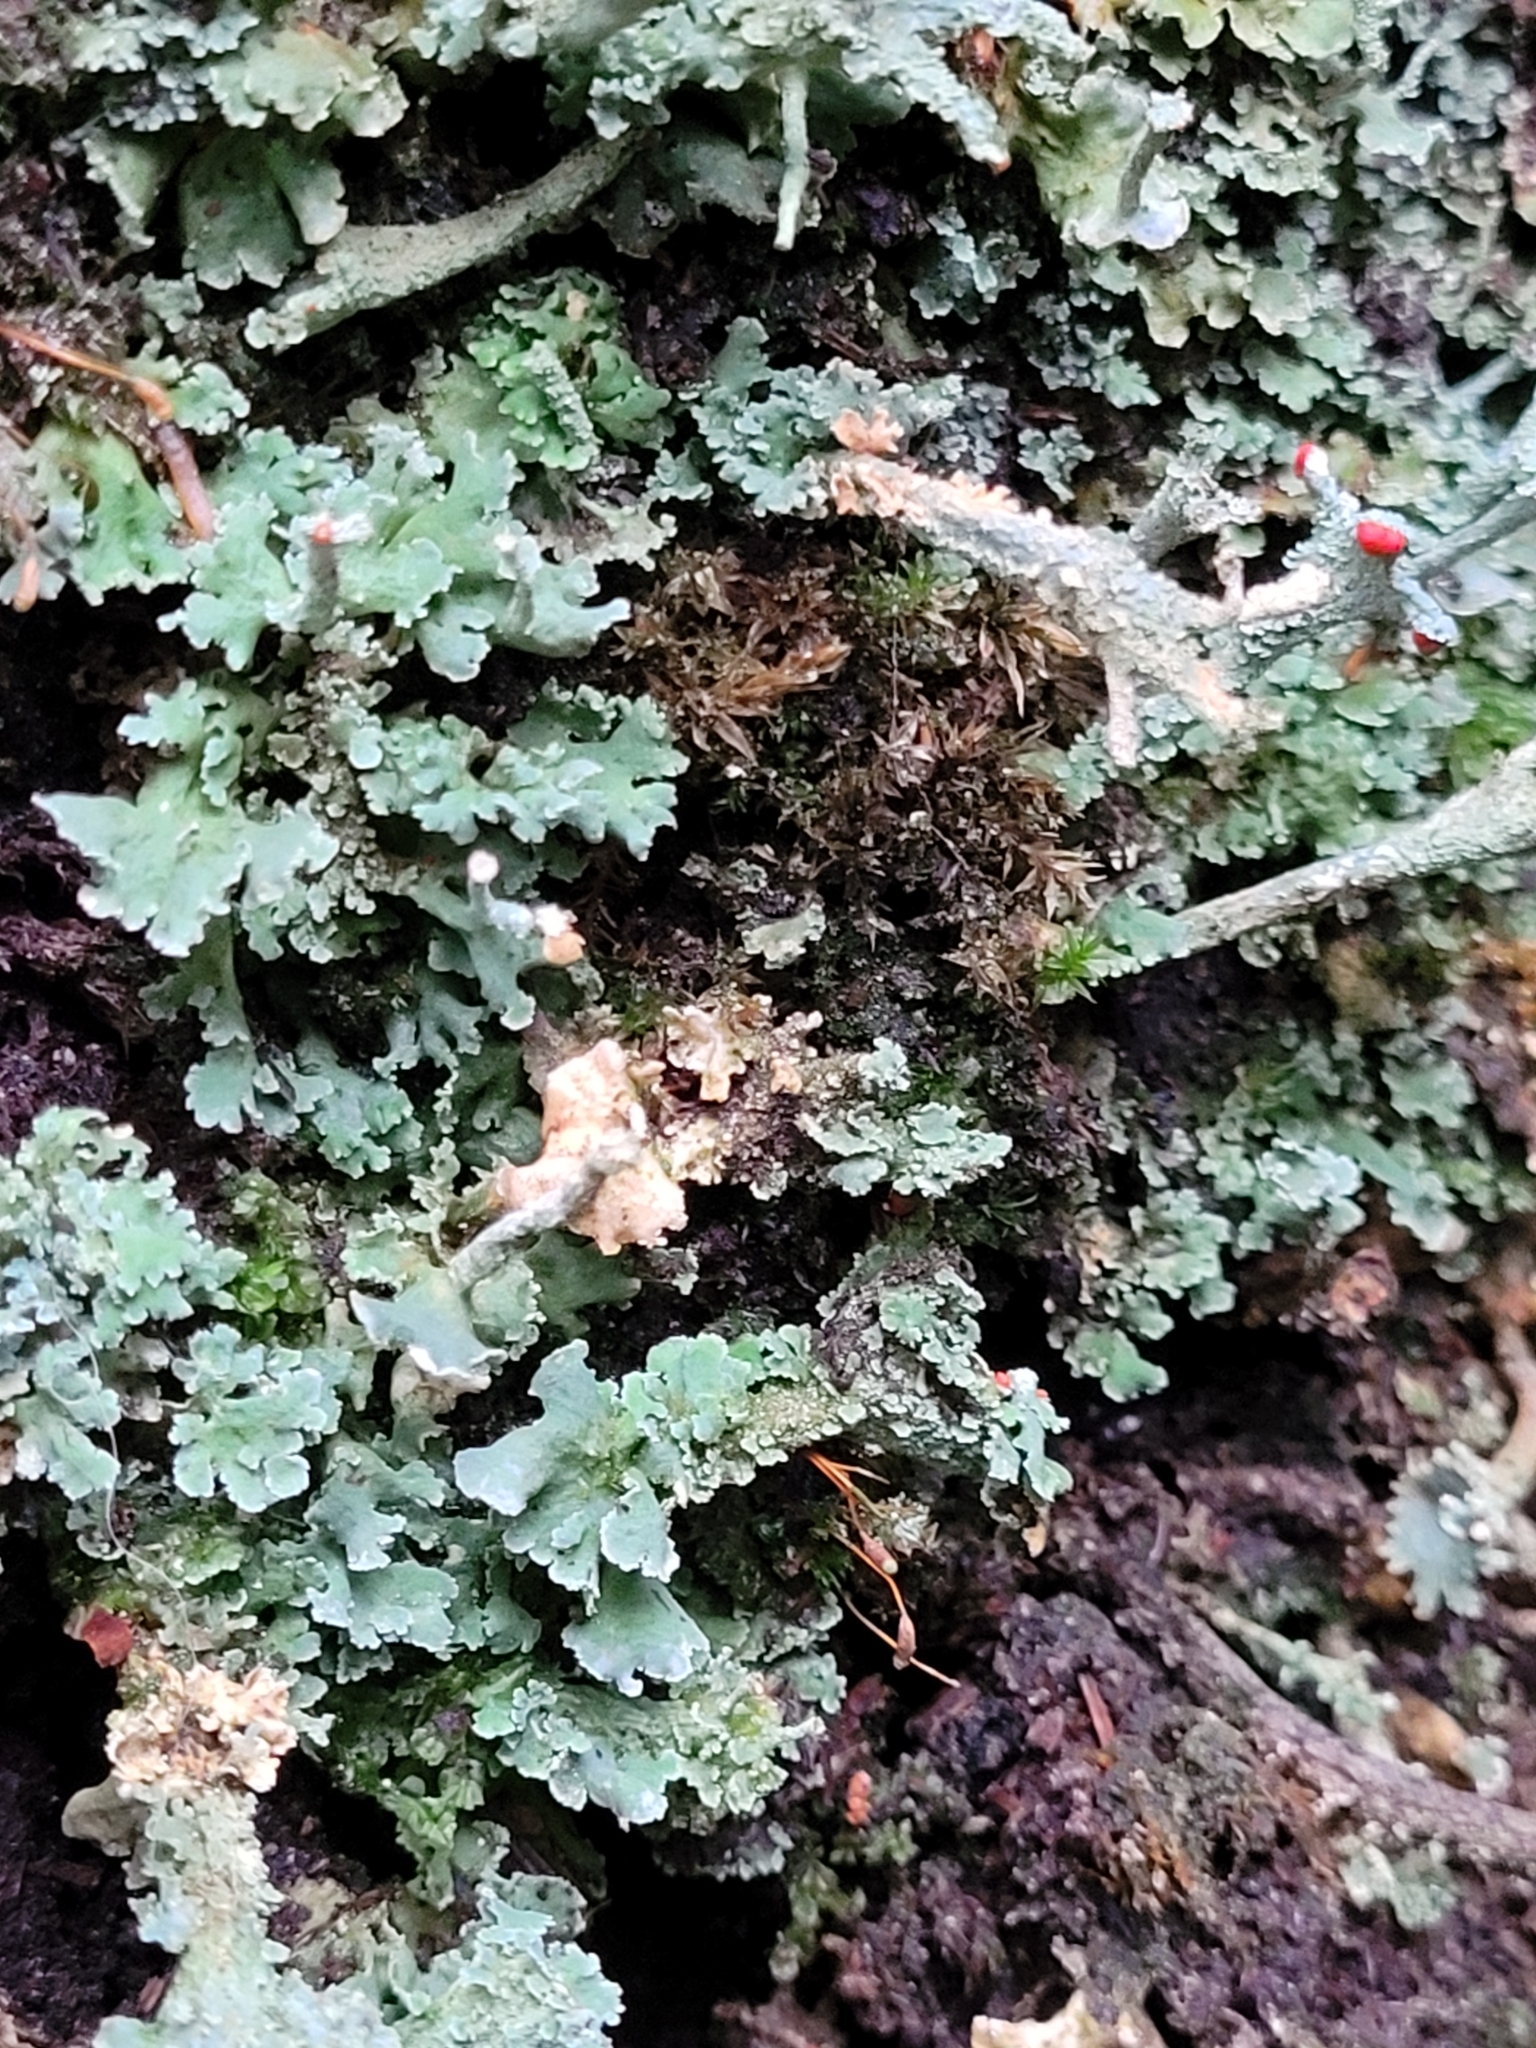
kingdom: Fungi
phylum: Ascomycota
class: Lecanoromycetes
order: Lecanorales
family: Cladoniaceae
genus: Cladonia
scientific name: Cladonia polydactyla
